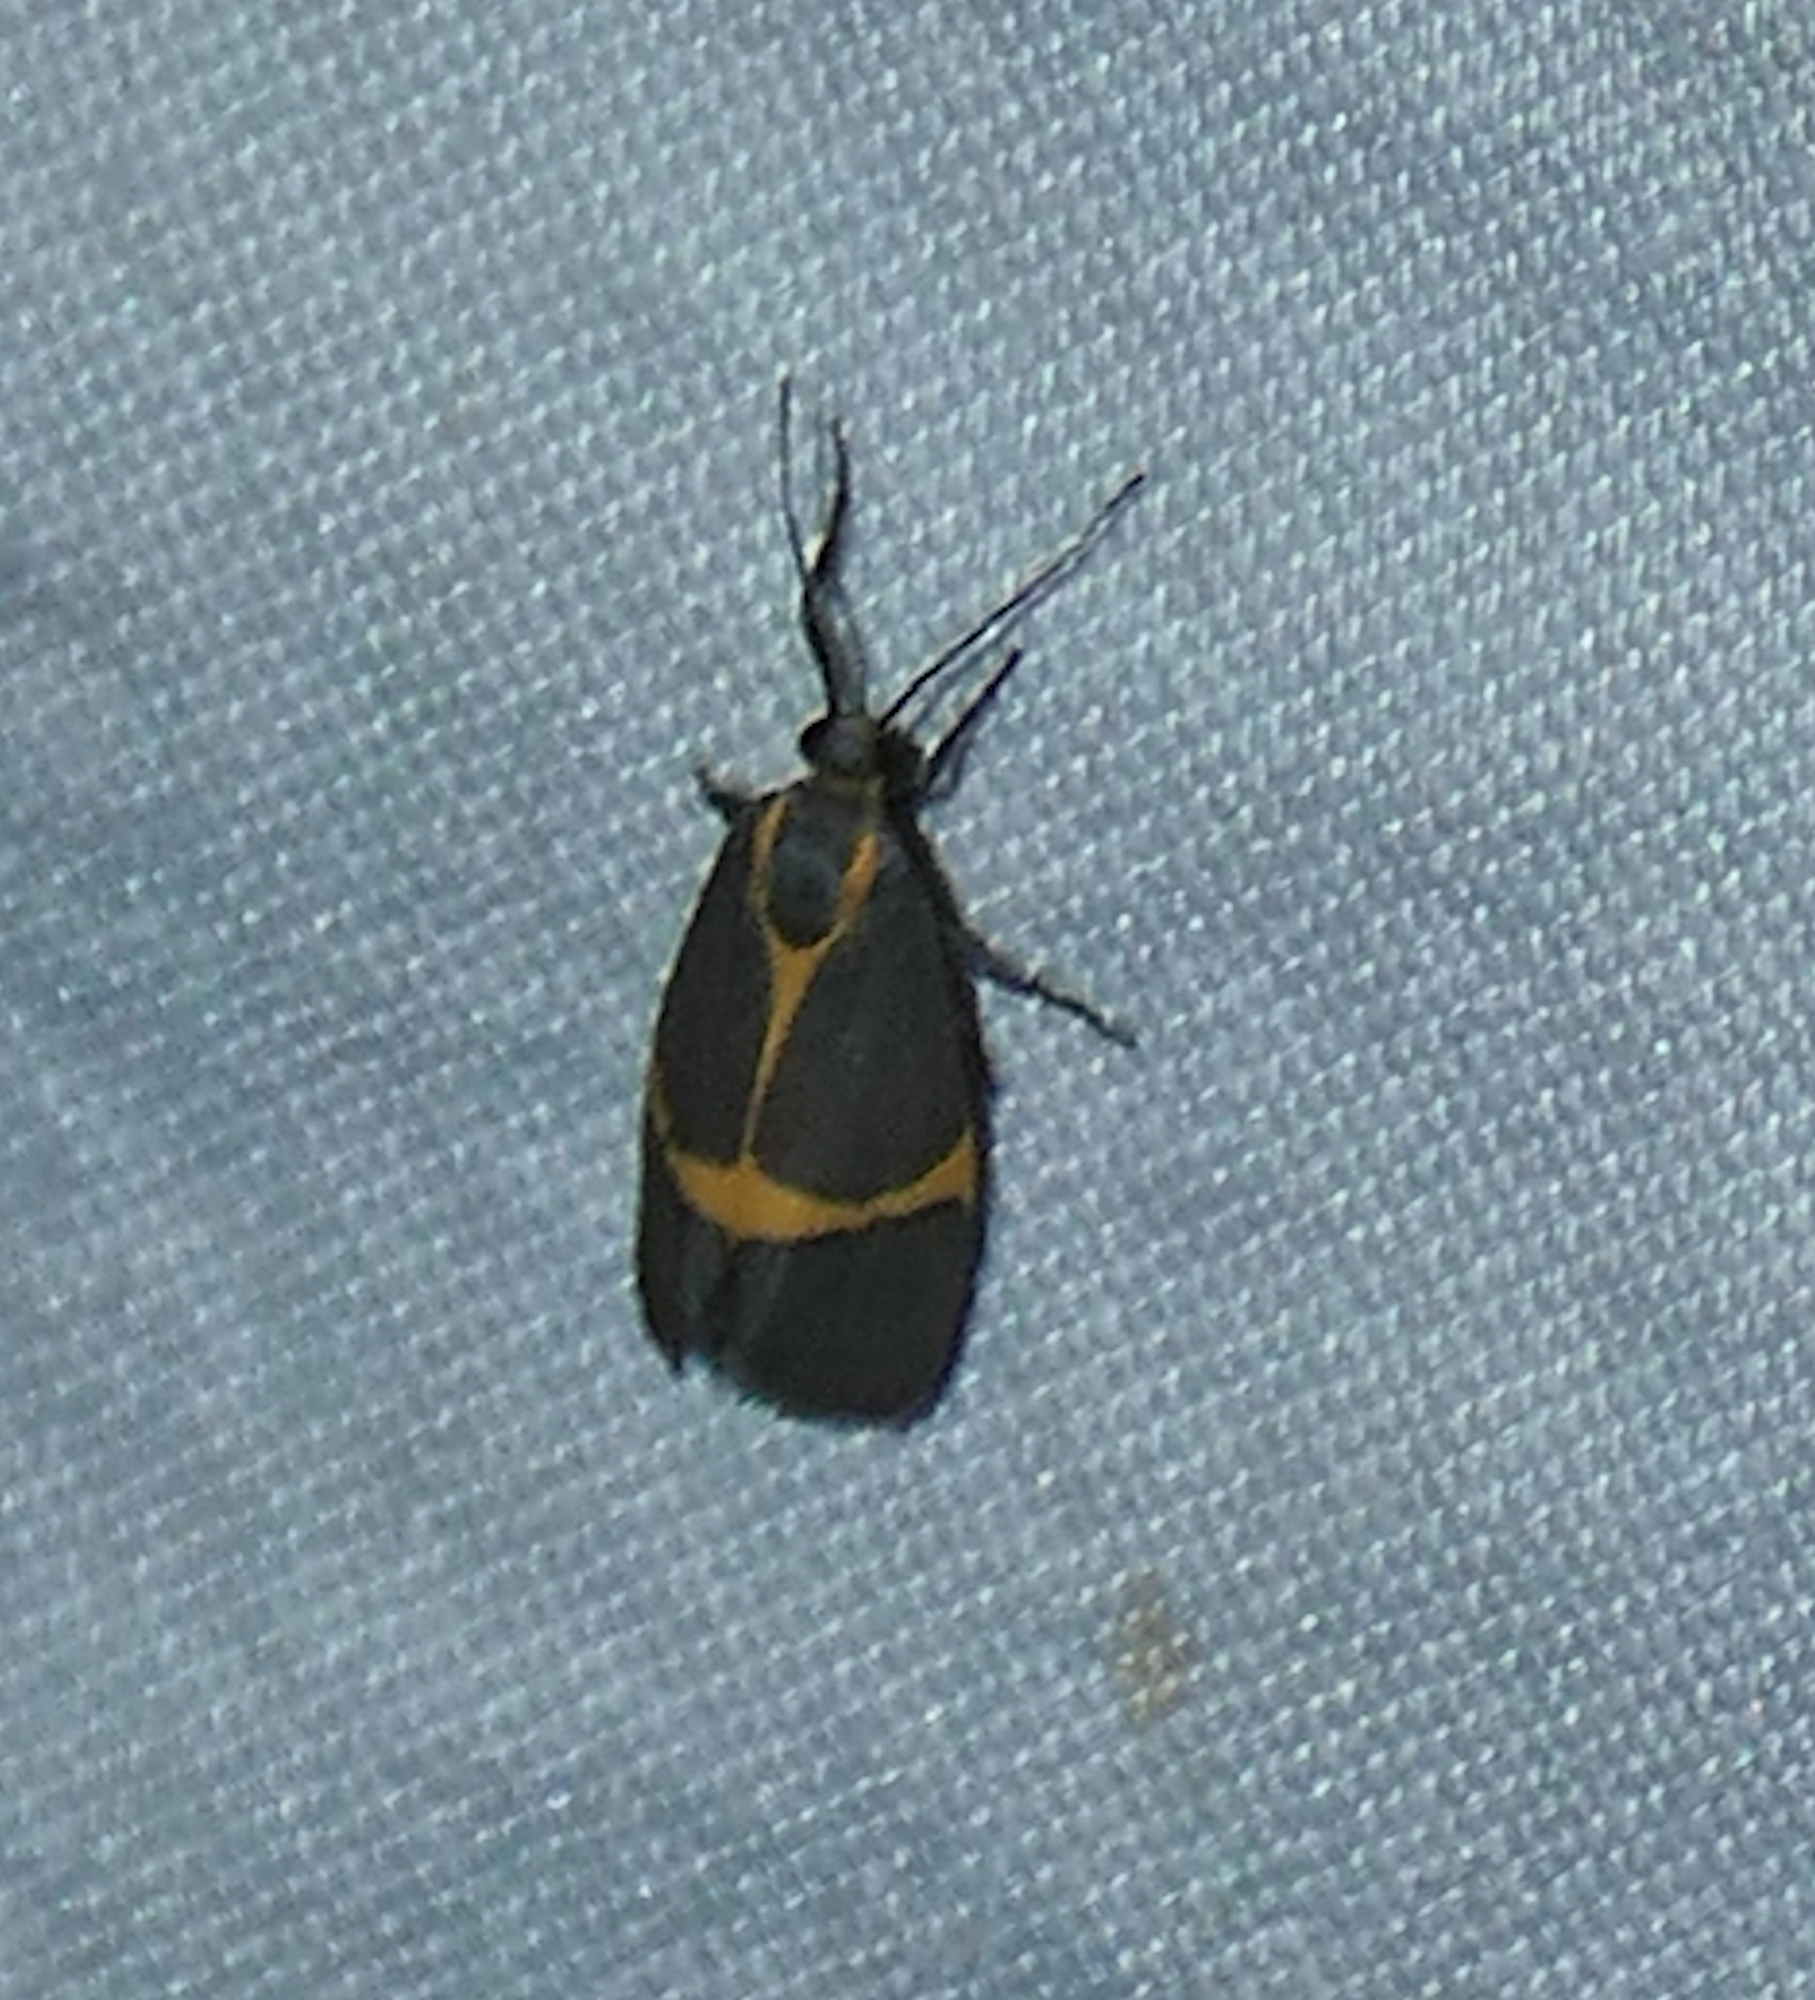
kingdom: Animalia
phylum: Arthropoda
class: Insecta
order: Lepidoptera
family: Erebidae
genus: Cisthene
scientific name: Cisthene barnesii
